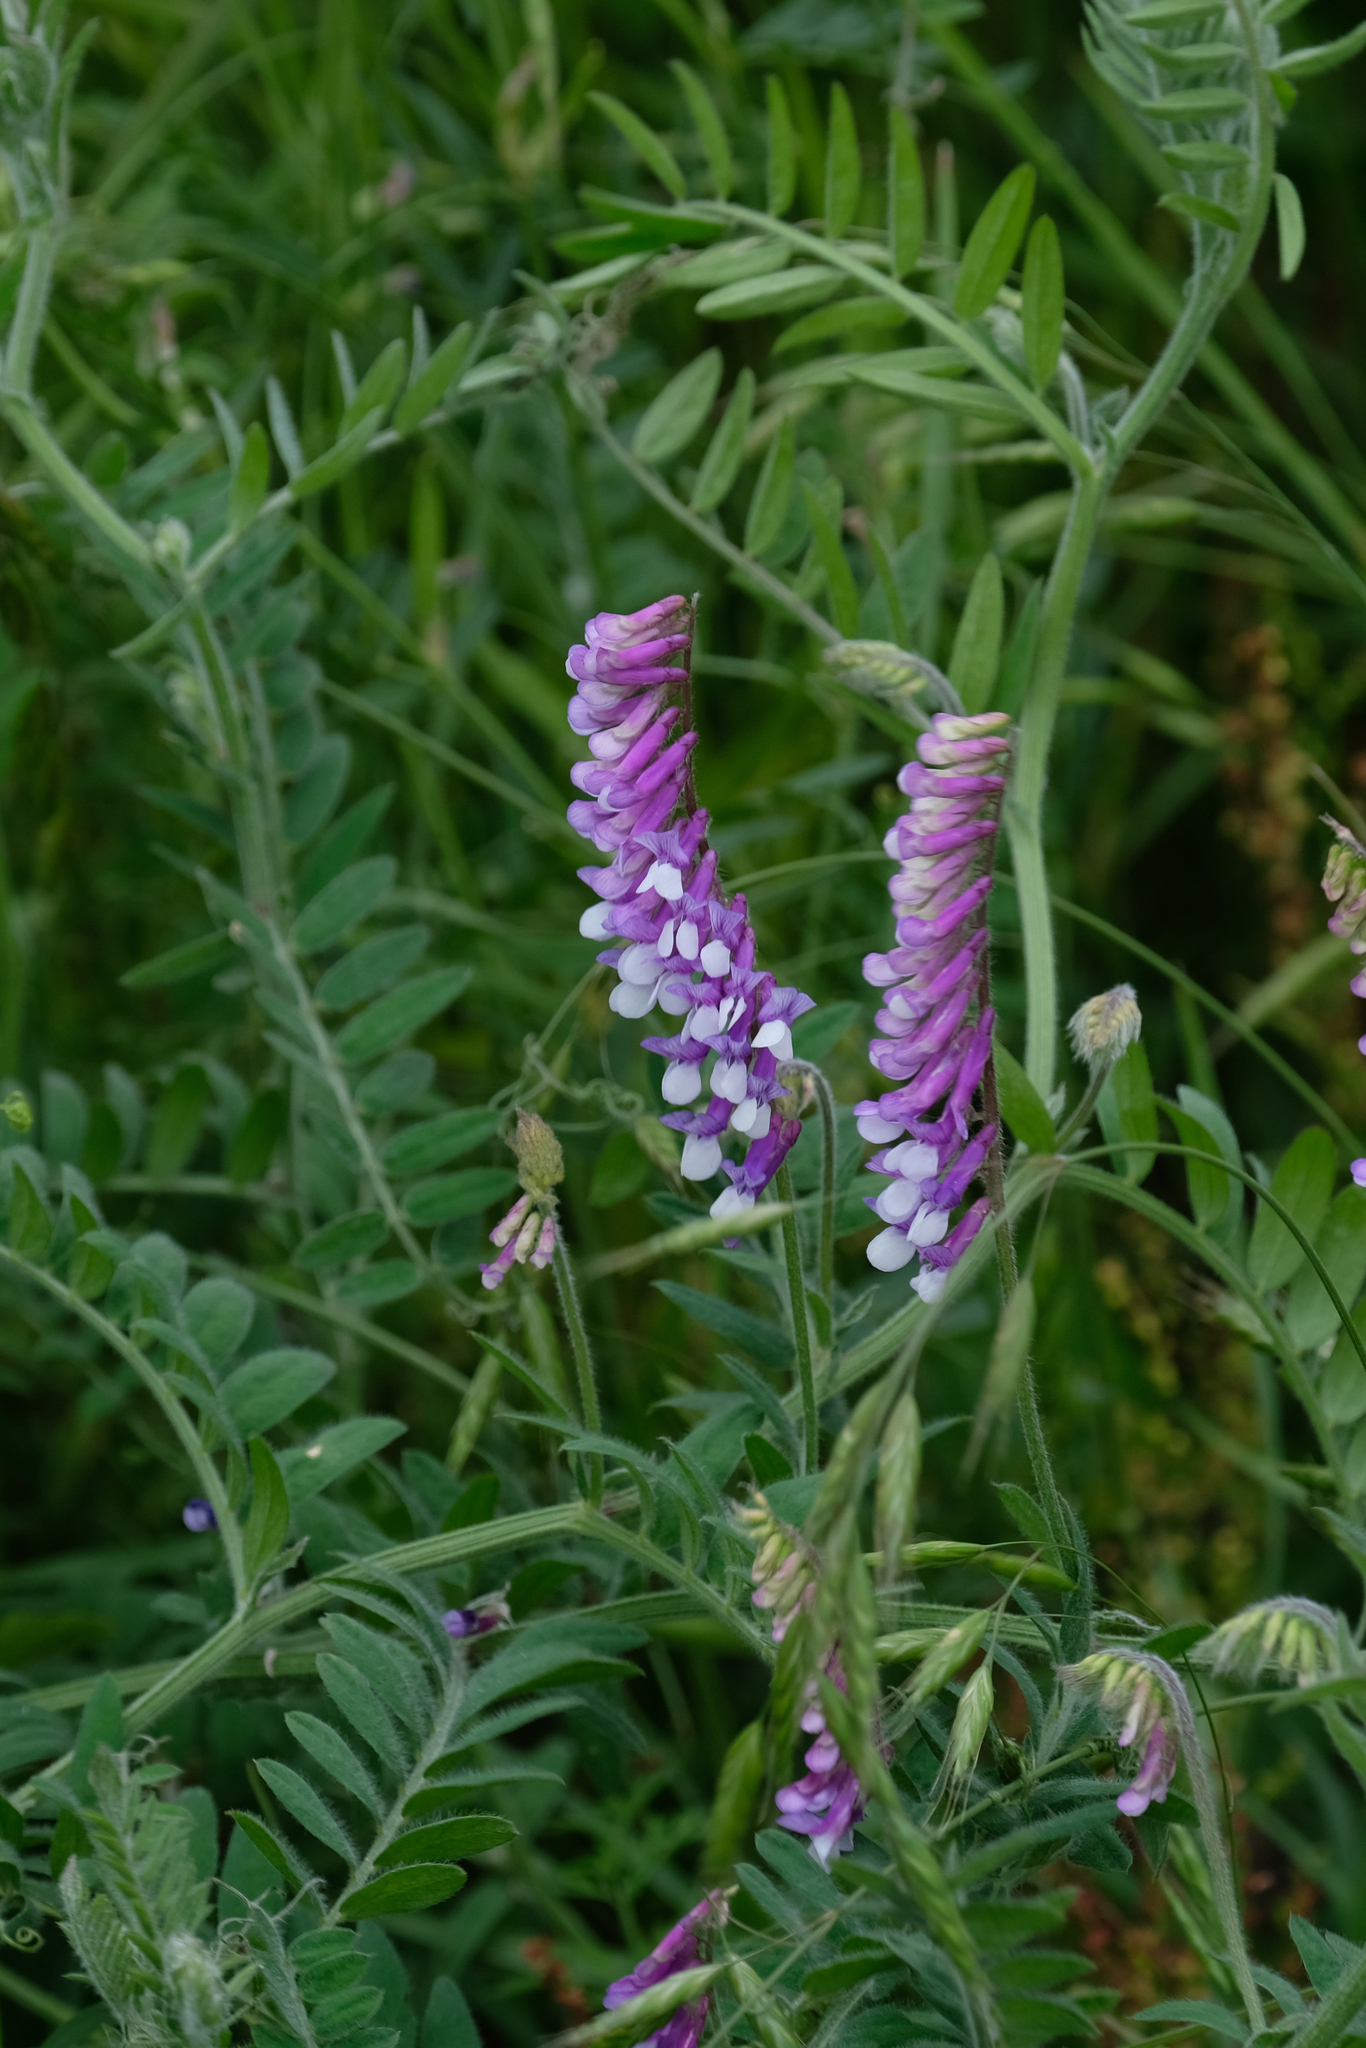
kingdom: Plantae
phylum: Tracheophyta
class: Magnoliopsida
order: Fabales
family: Fabaceae
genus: Vicia
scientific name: Vicia villosa
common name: Fodder vetch
